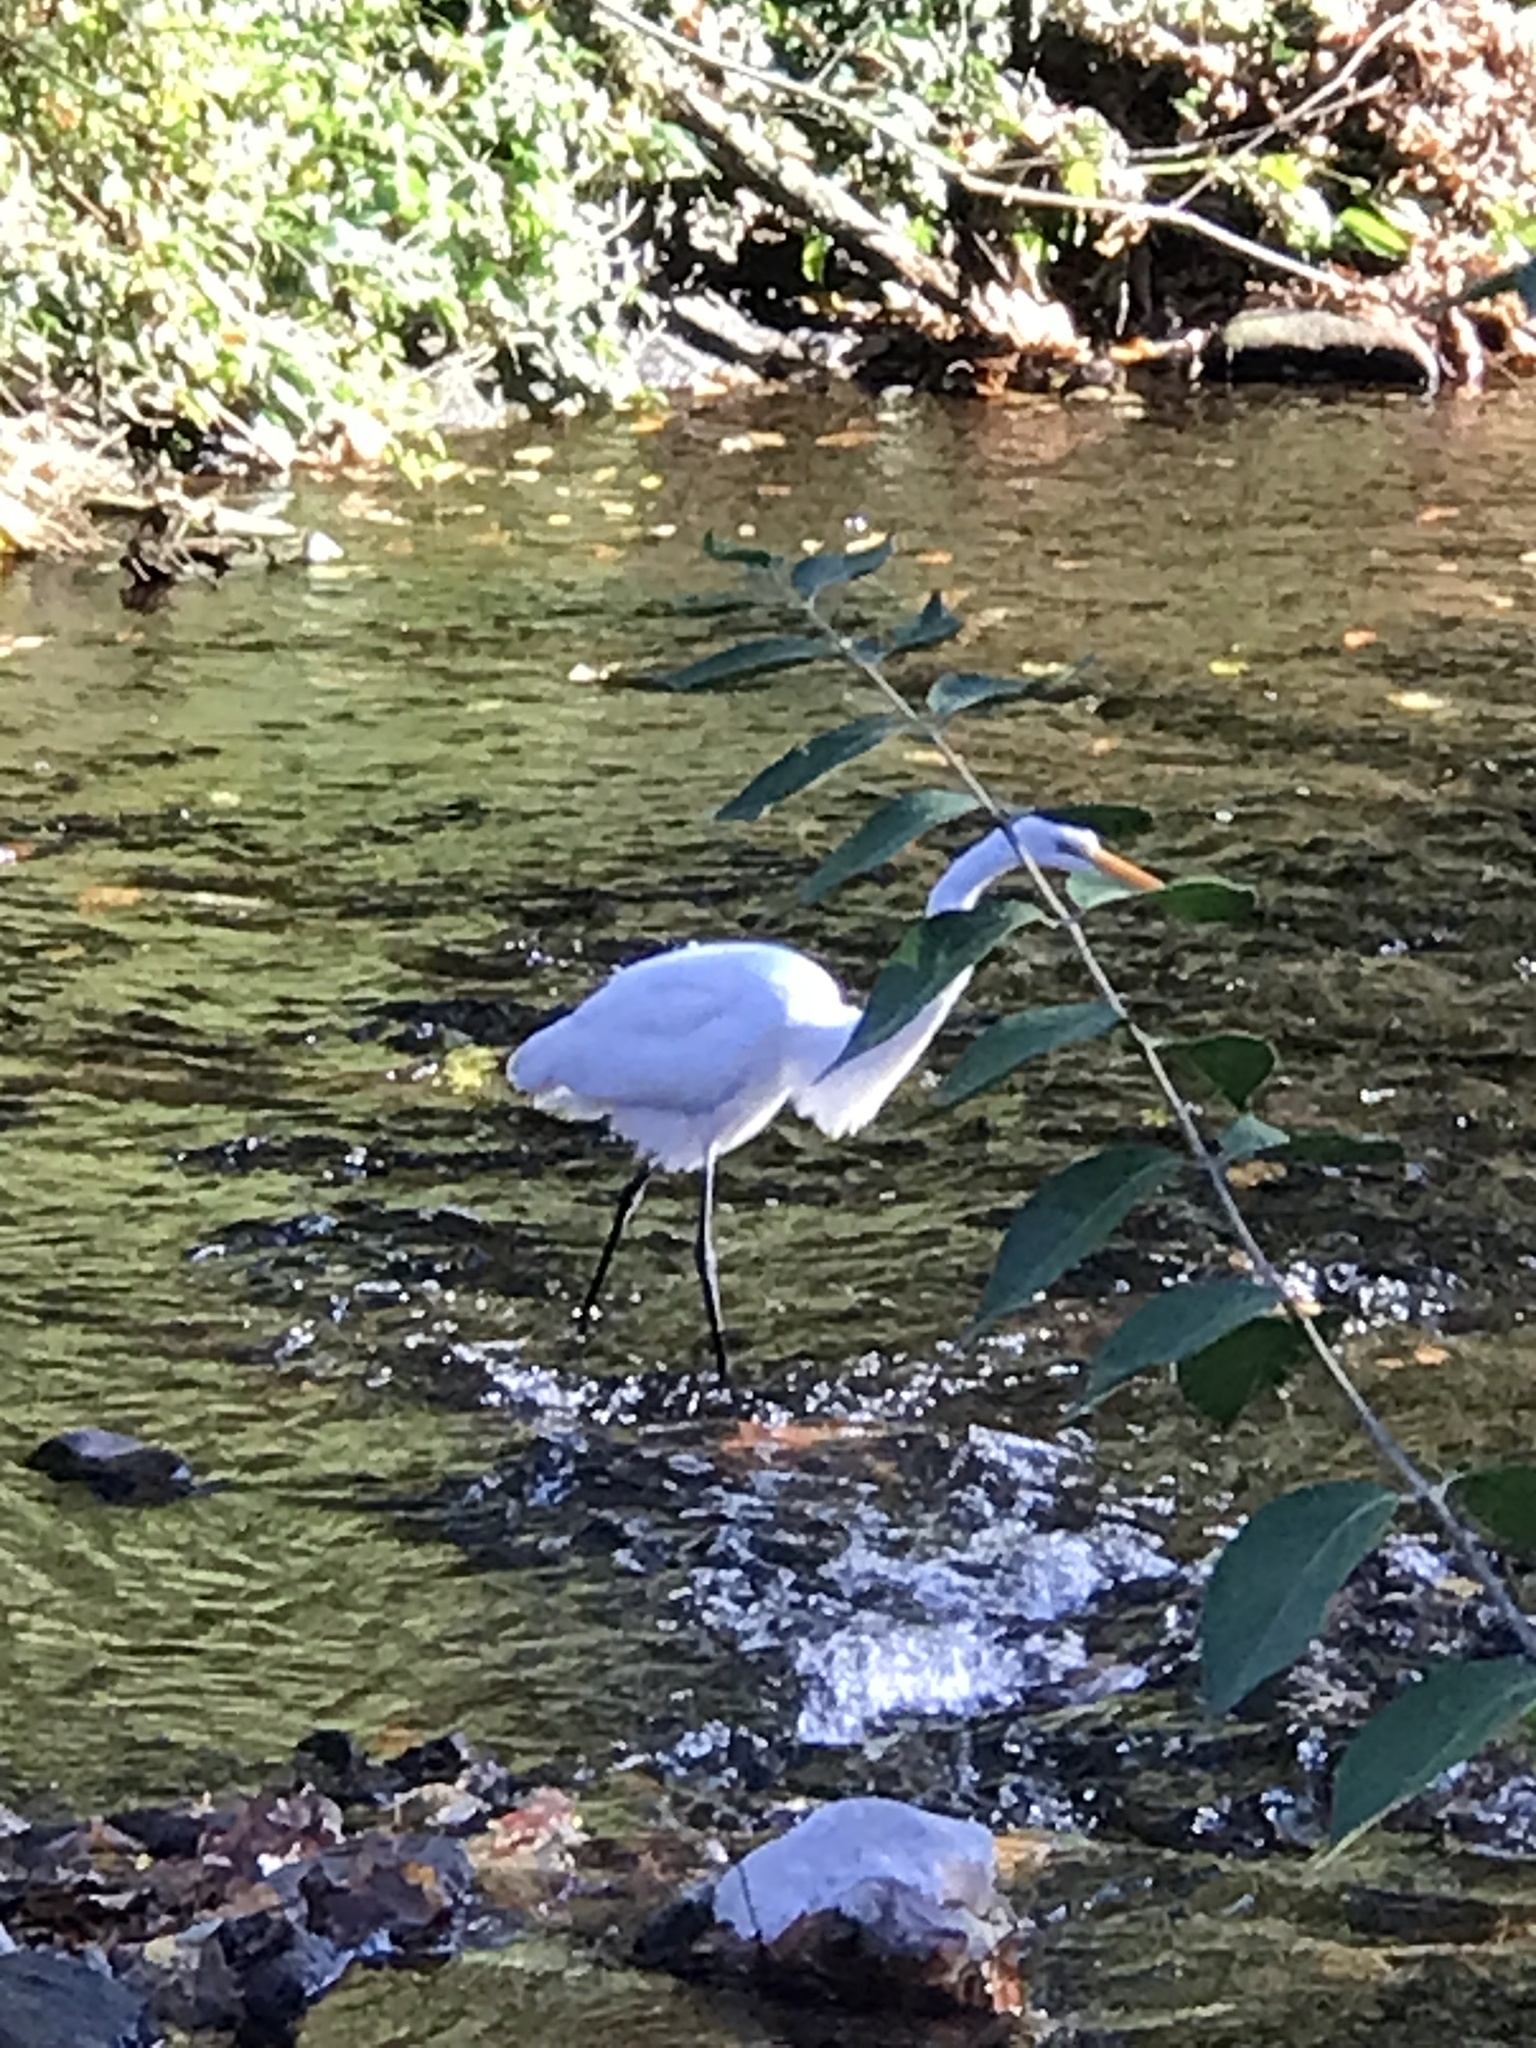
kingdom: Animalia
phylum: Chordata
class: Aves
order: Pelecaniformes
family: Ardeidae
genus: Ardea
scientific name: Ardea alba
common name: Great egret
